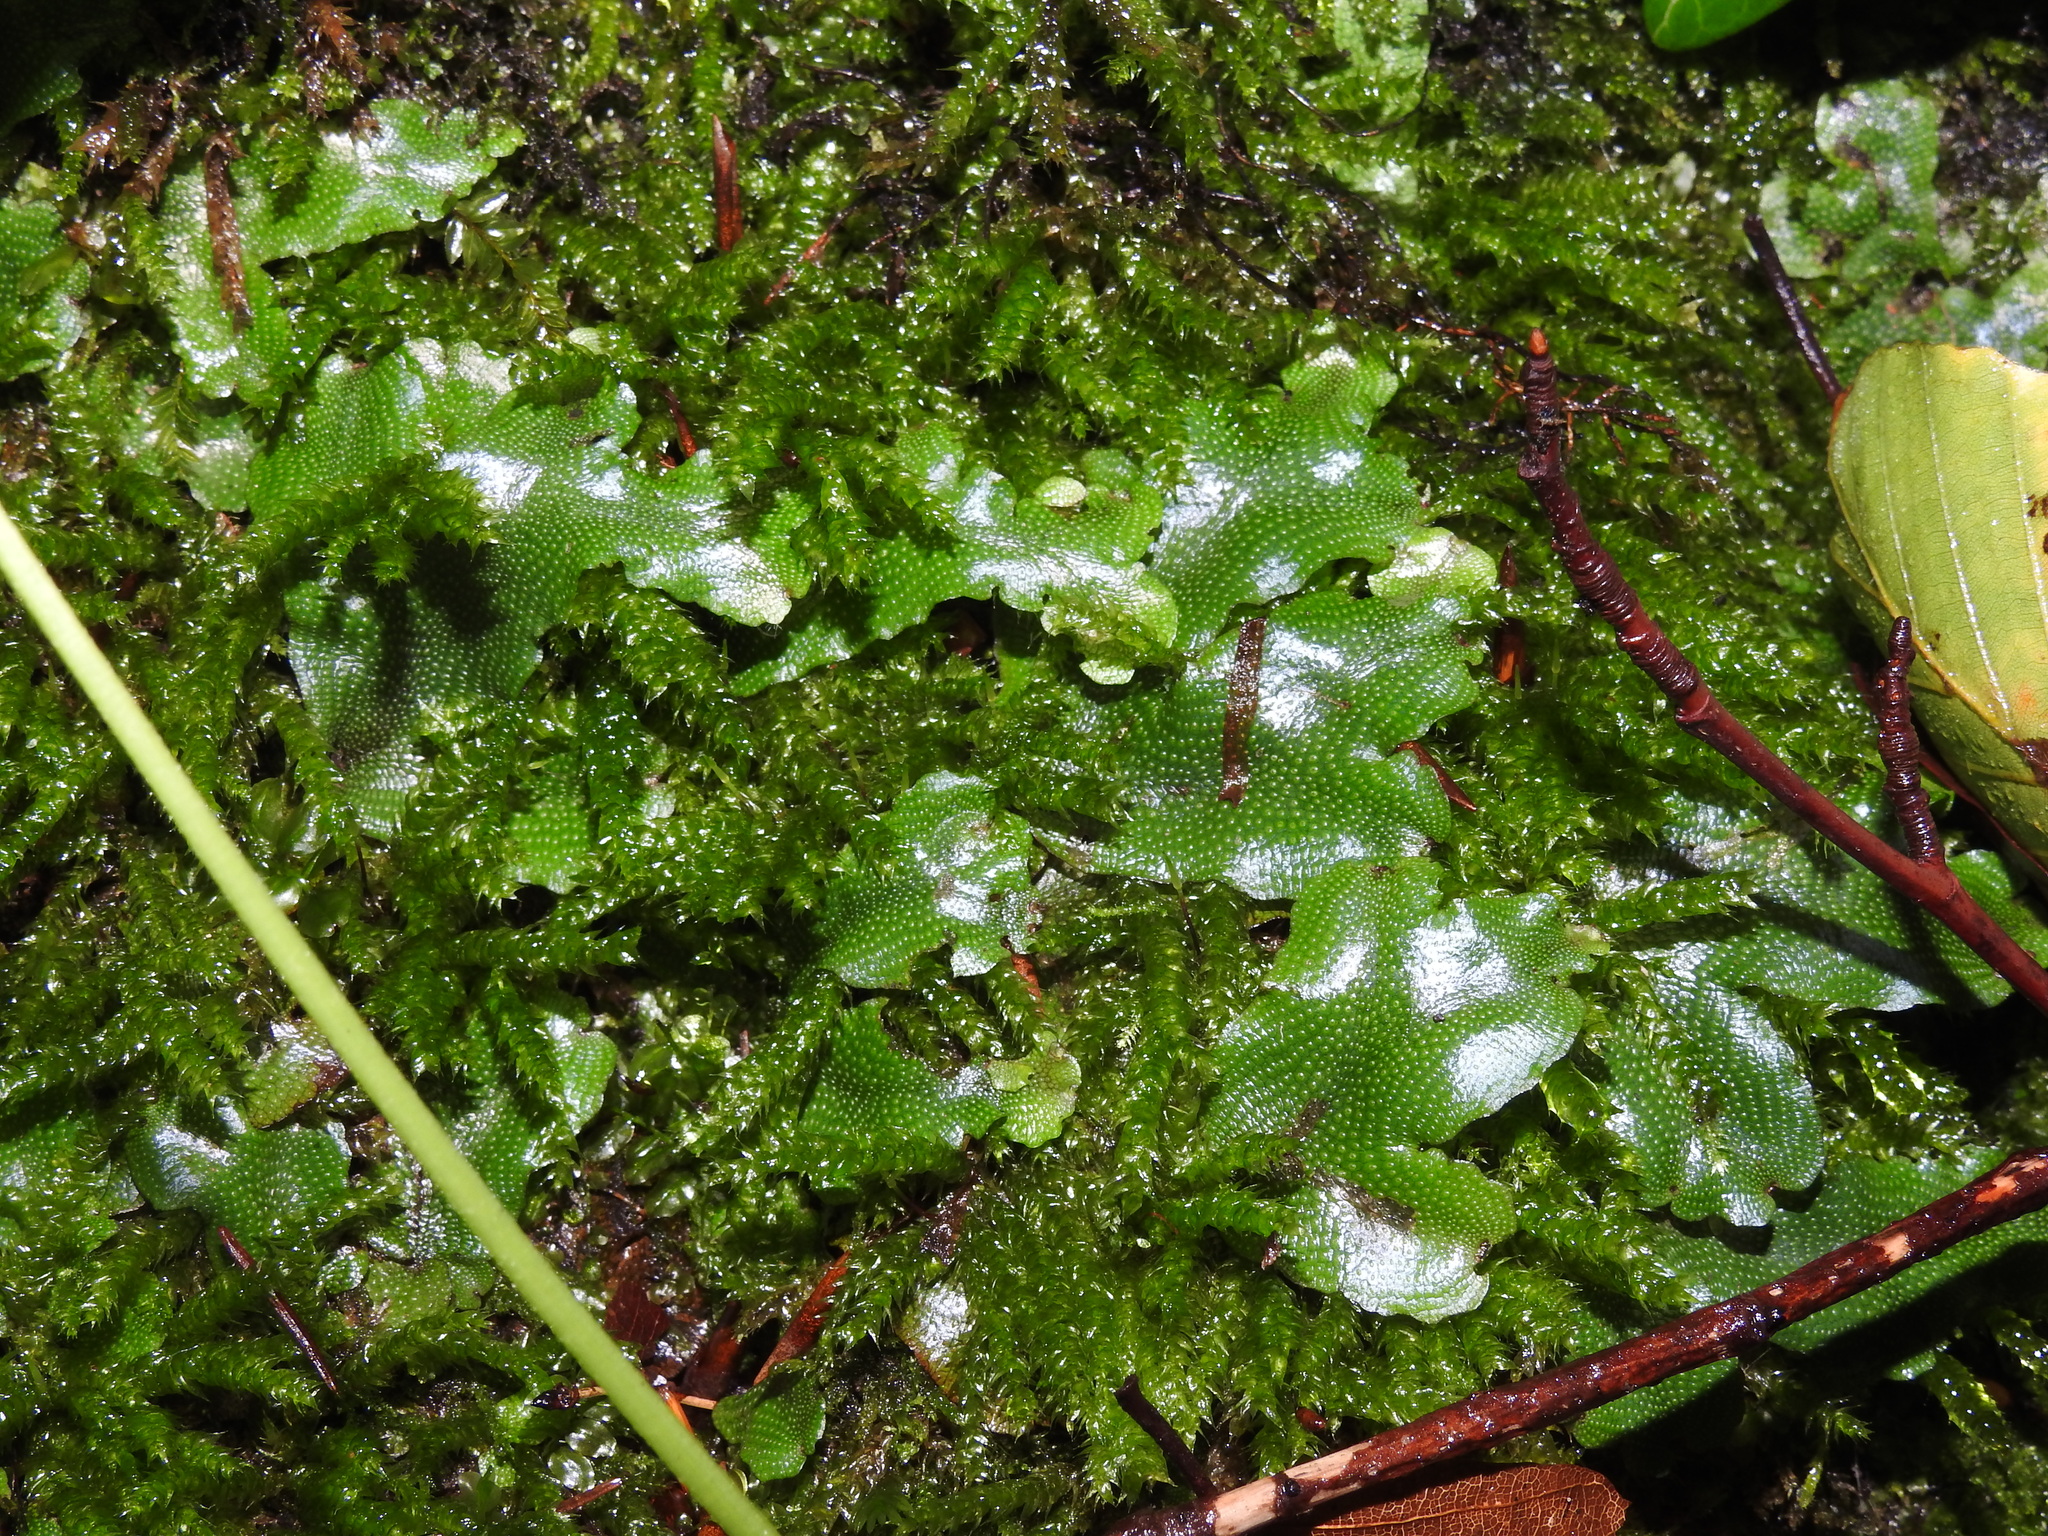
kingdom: Plantae
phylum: Marchantiophyta
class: Marchantiopsida
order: Marchantiales
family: Conocephalaceae
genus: Conocephalum
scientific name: Conocephalum salebrosum
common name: Cat-tongue liverwort
